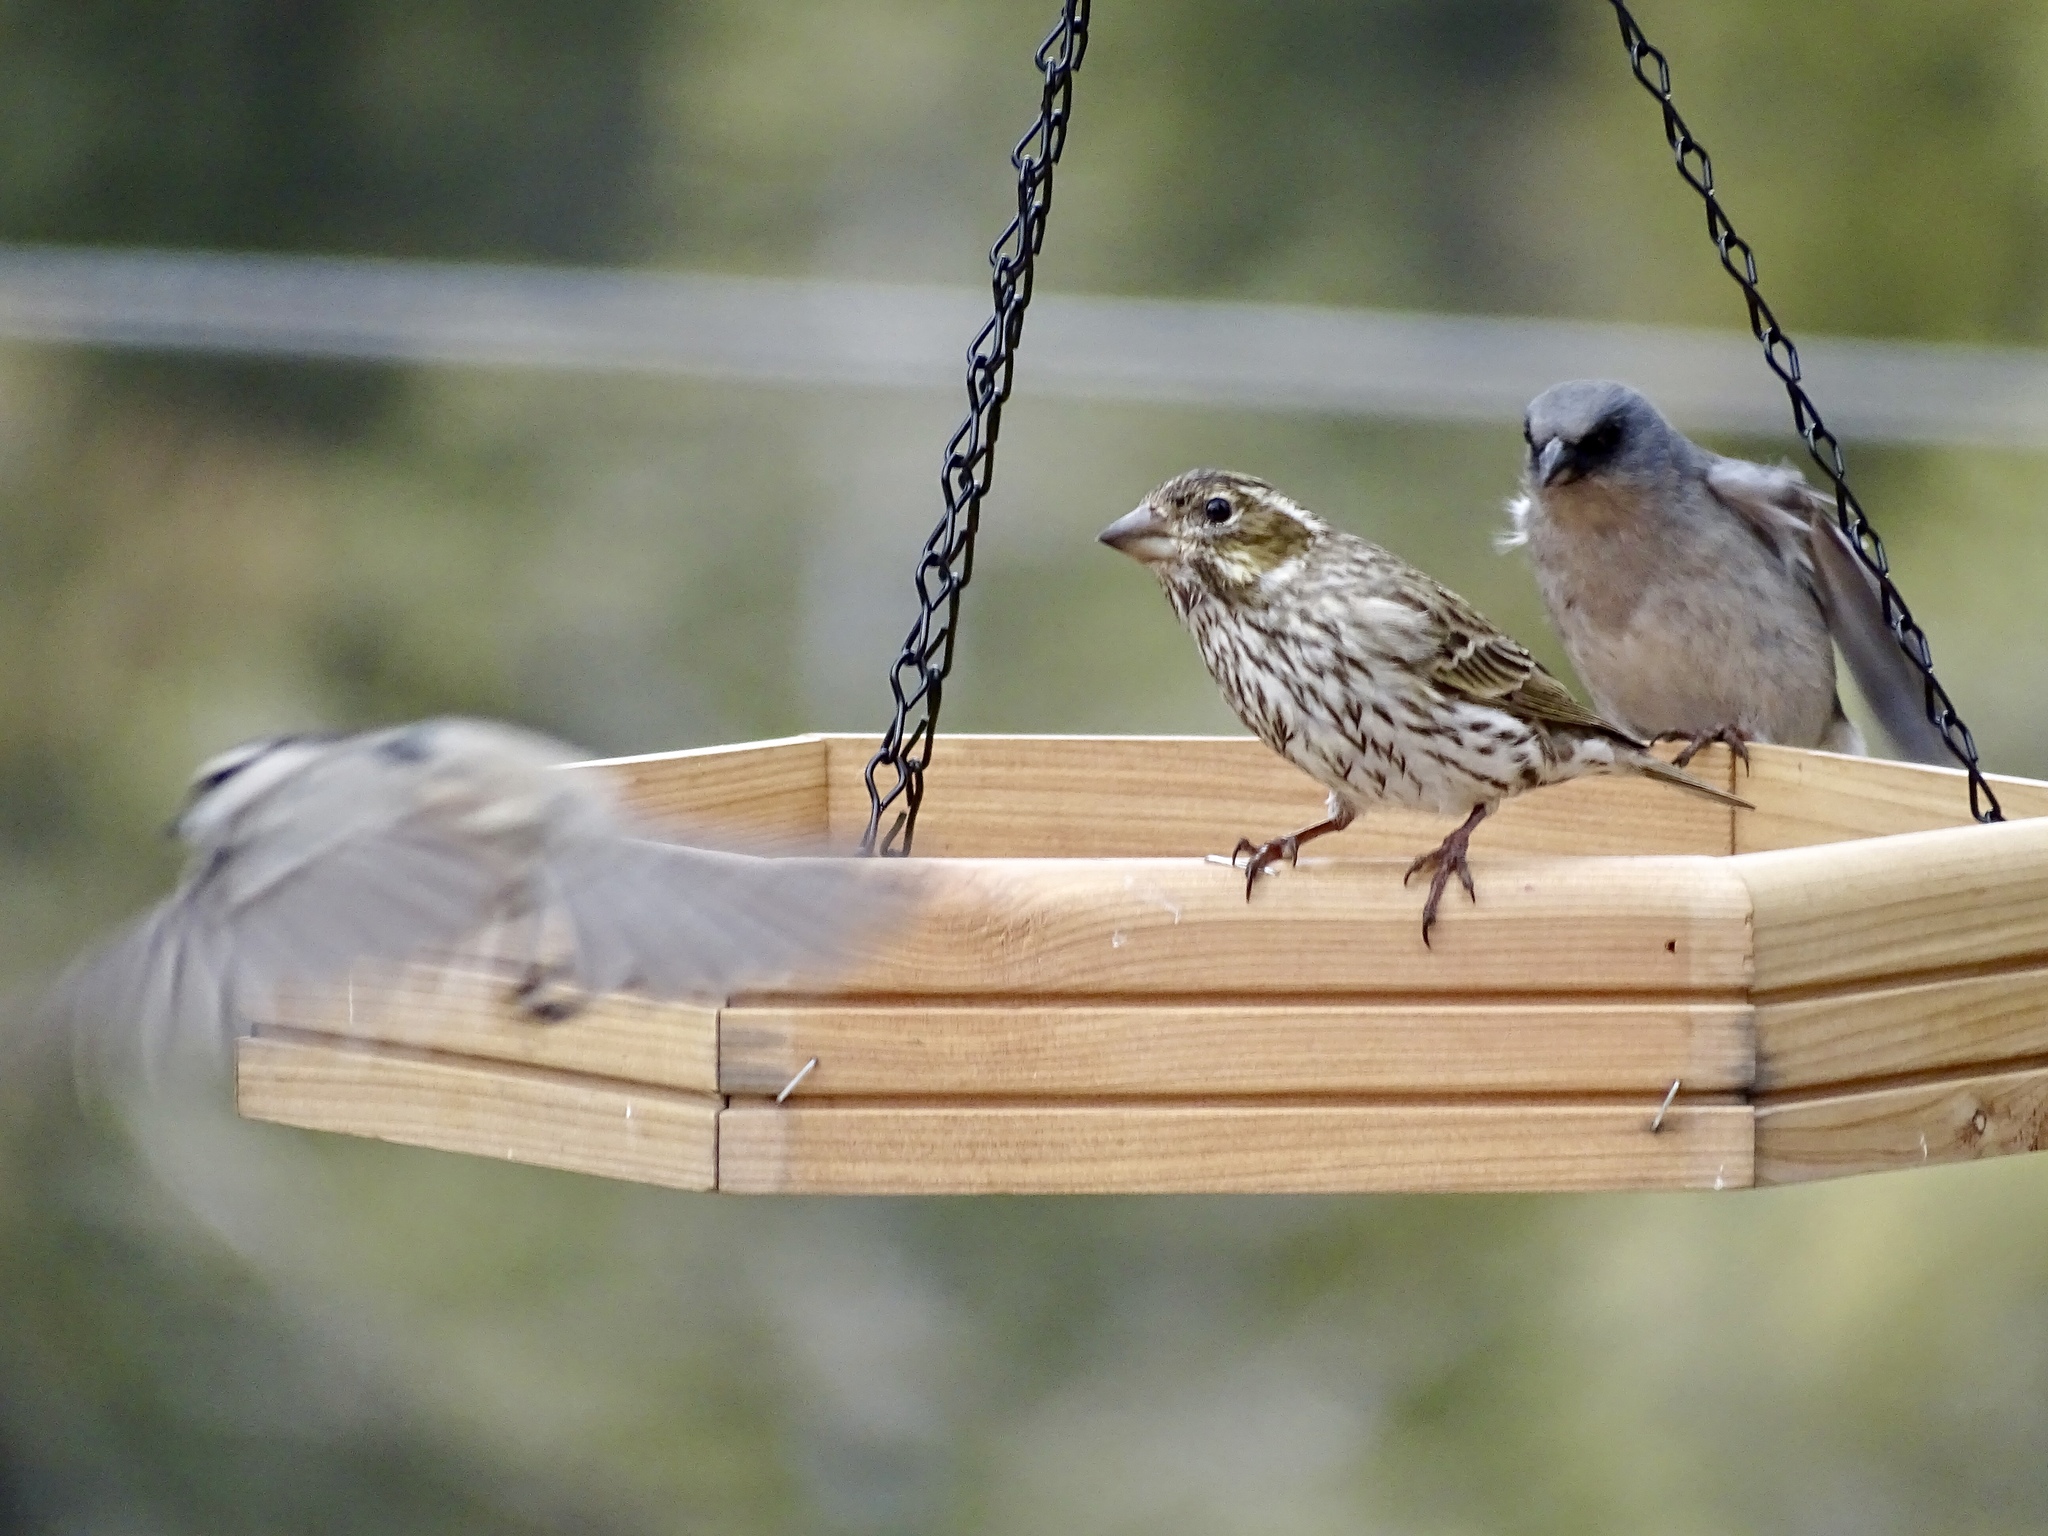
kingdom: Animalia
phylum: Chordata
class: Aves
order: Passeriformes
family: Fringillidae
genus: Haemorhous
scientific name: Haemorhous cassinii
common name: Cassin's finch
